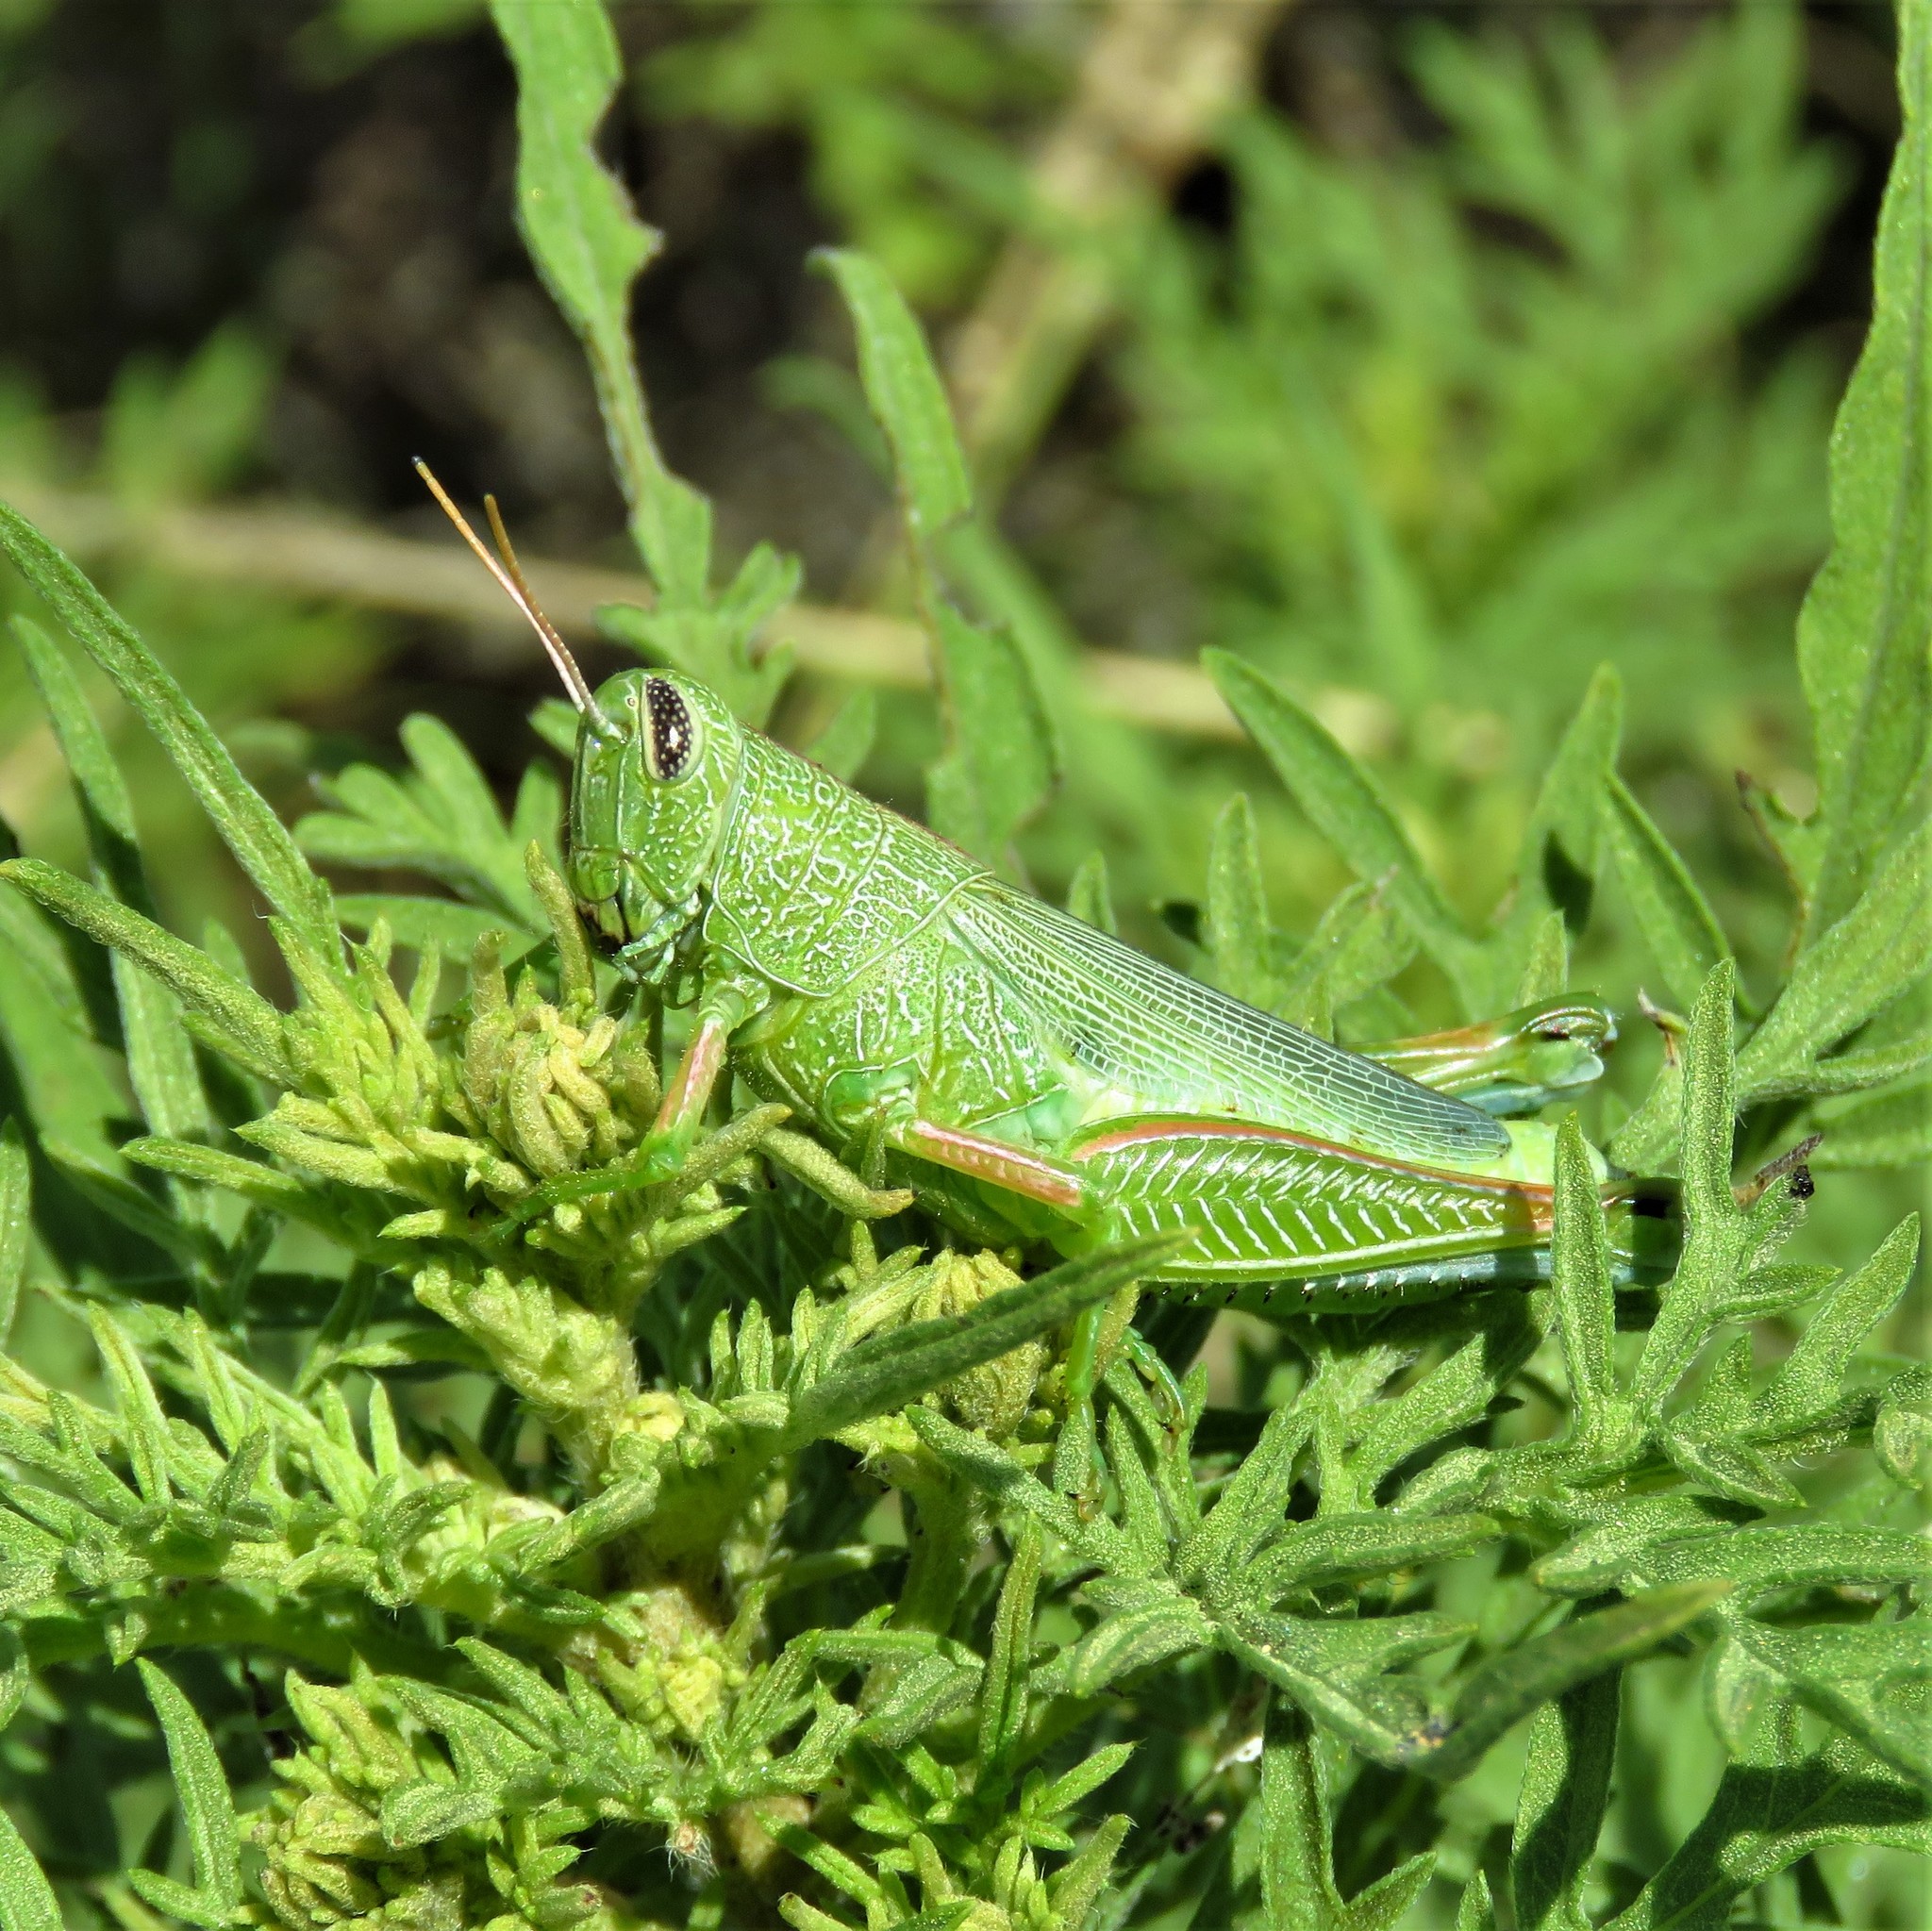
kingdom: Animalia
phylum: Arthropoda
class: Insecta
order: Orthoptera
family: Acrididae
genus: Hesperotettix
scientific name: Hesperotettix speciosus
